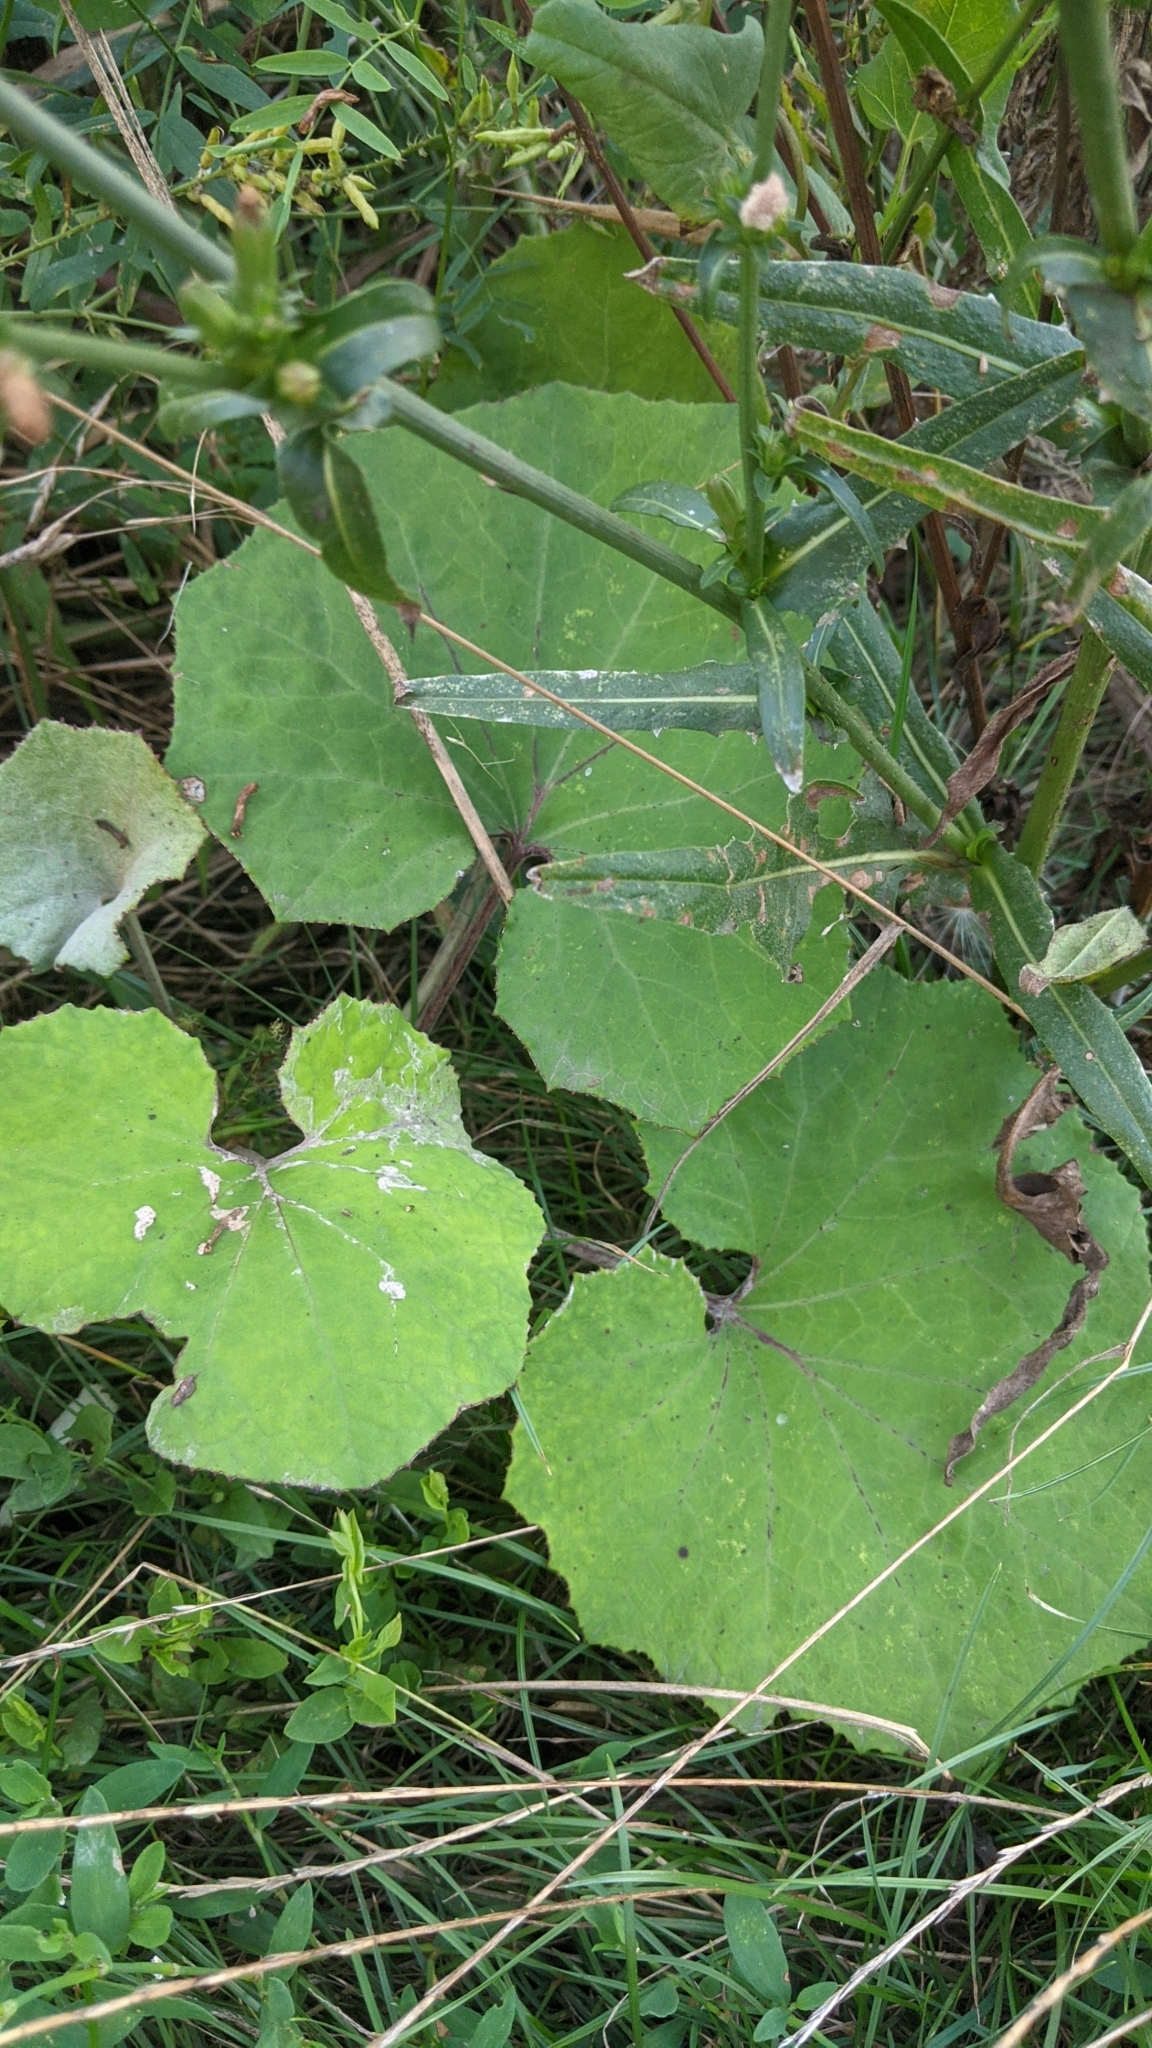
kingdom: Plantae
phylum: Tracheophyta
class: Magnoliopsida
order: Asterales
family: Asteraceae
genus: Tussilago
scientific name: Tussilago farfara
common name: Coltsfoot
